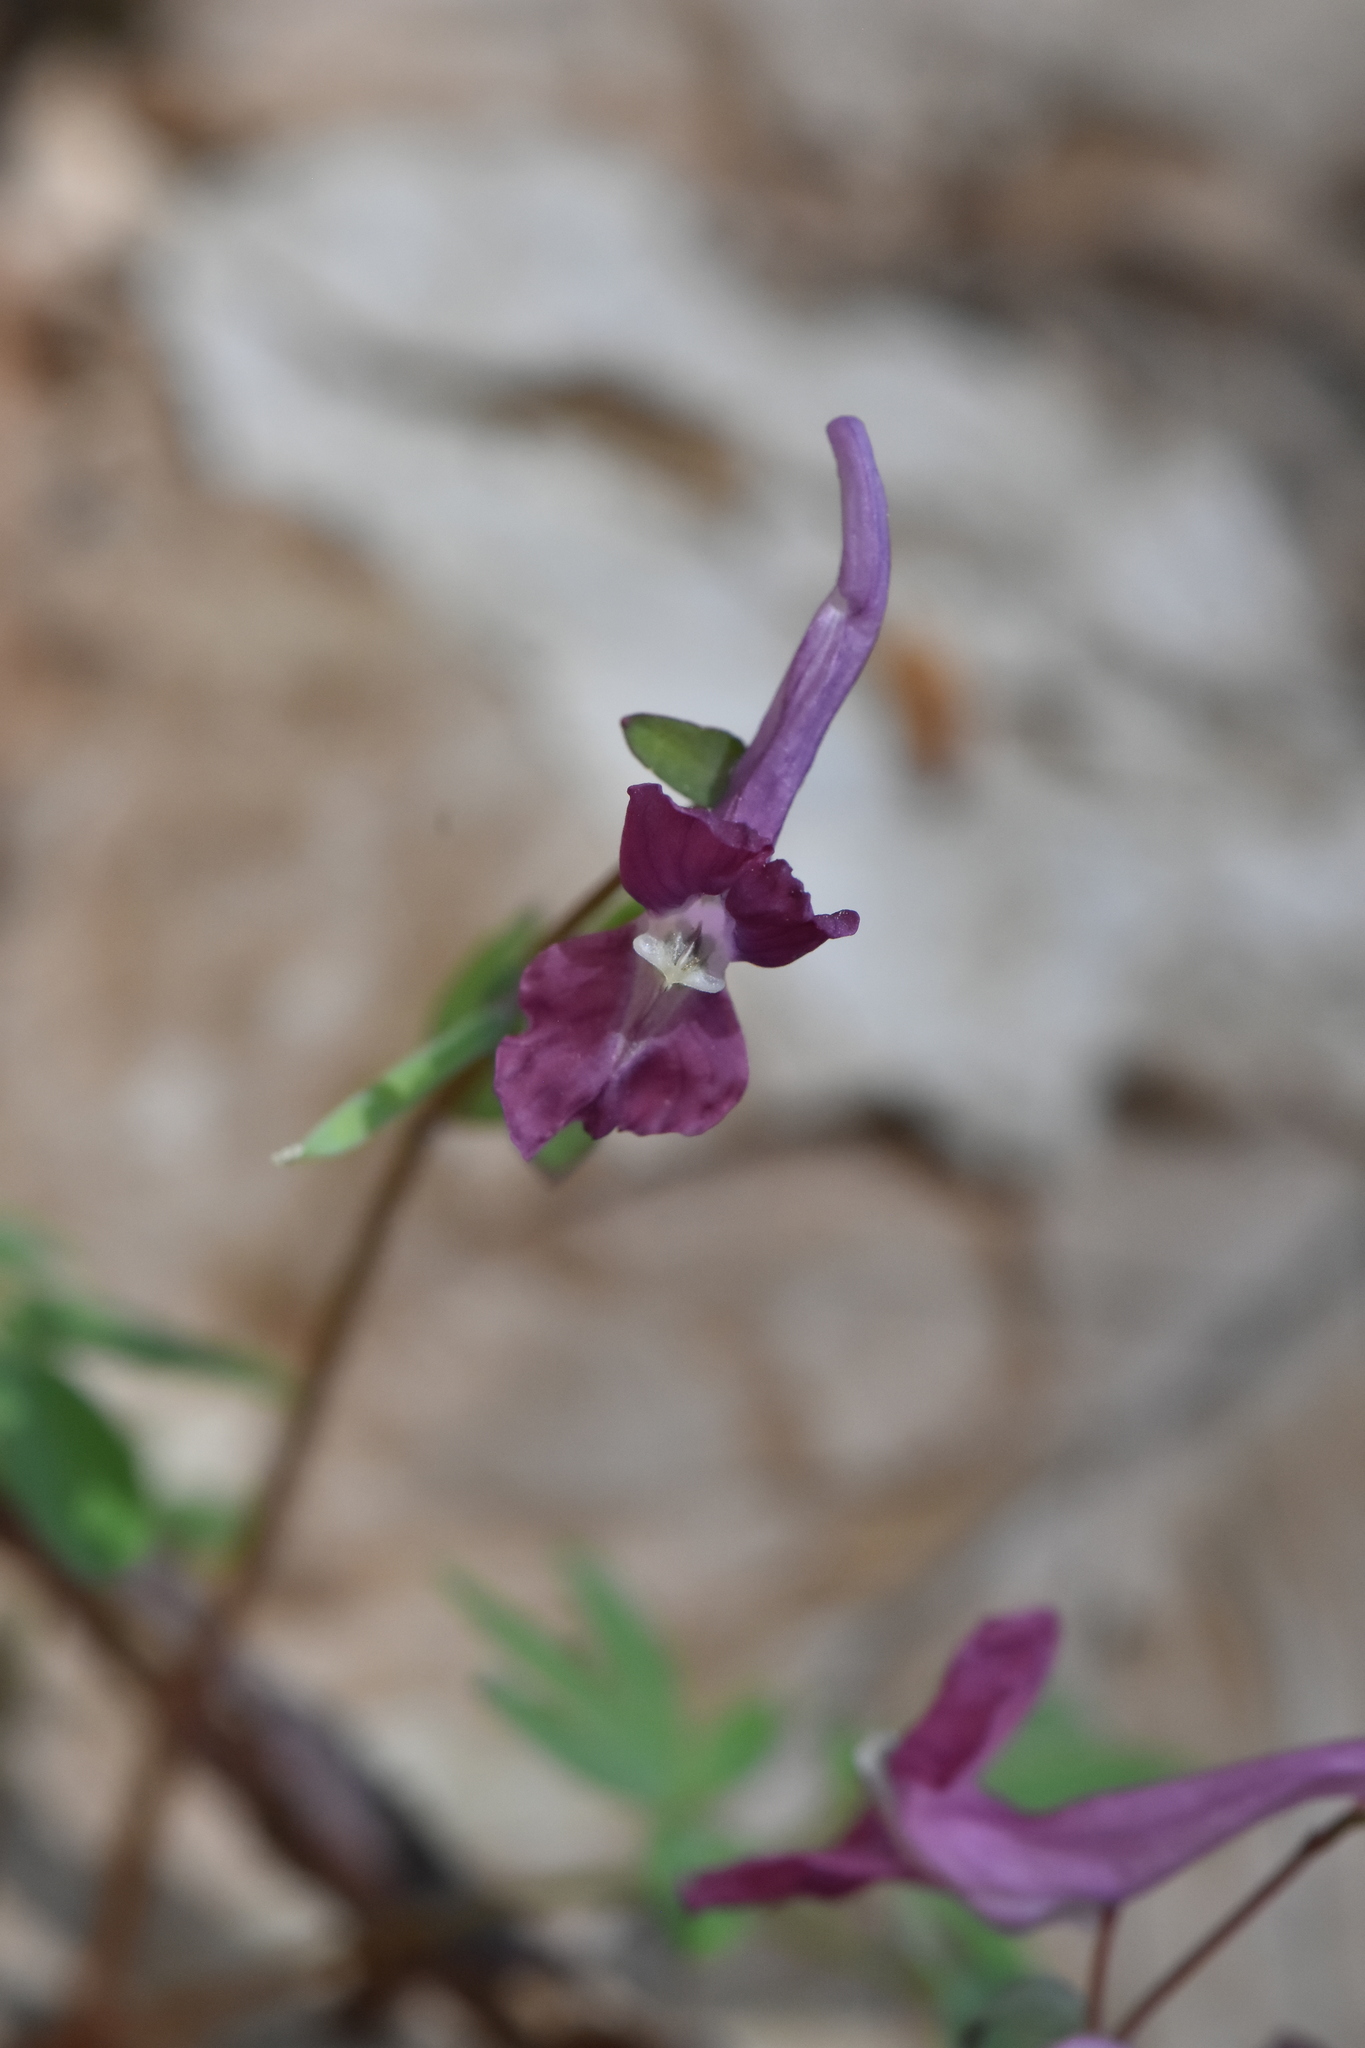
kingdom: Plantae
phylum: Tracheophyta
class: Magnoliopsida
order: Ranunculales
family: Papaveraceae
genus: Corydalis
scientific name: Corydalis caucasica
